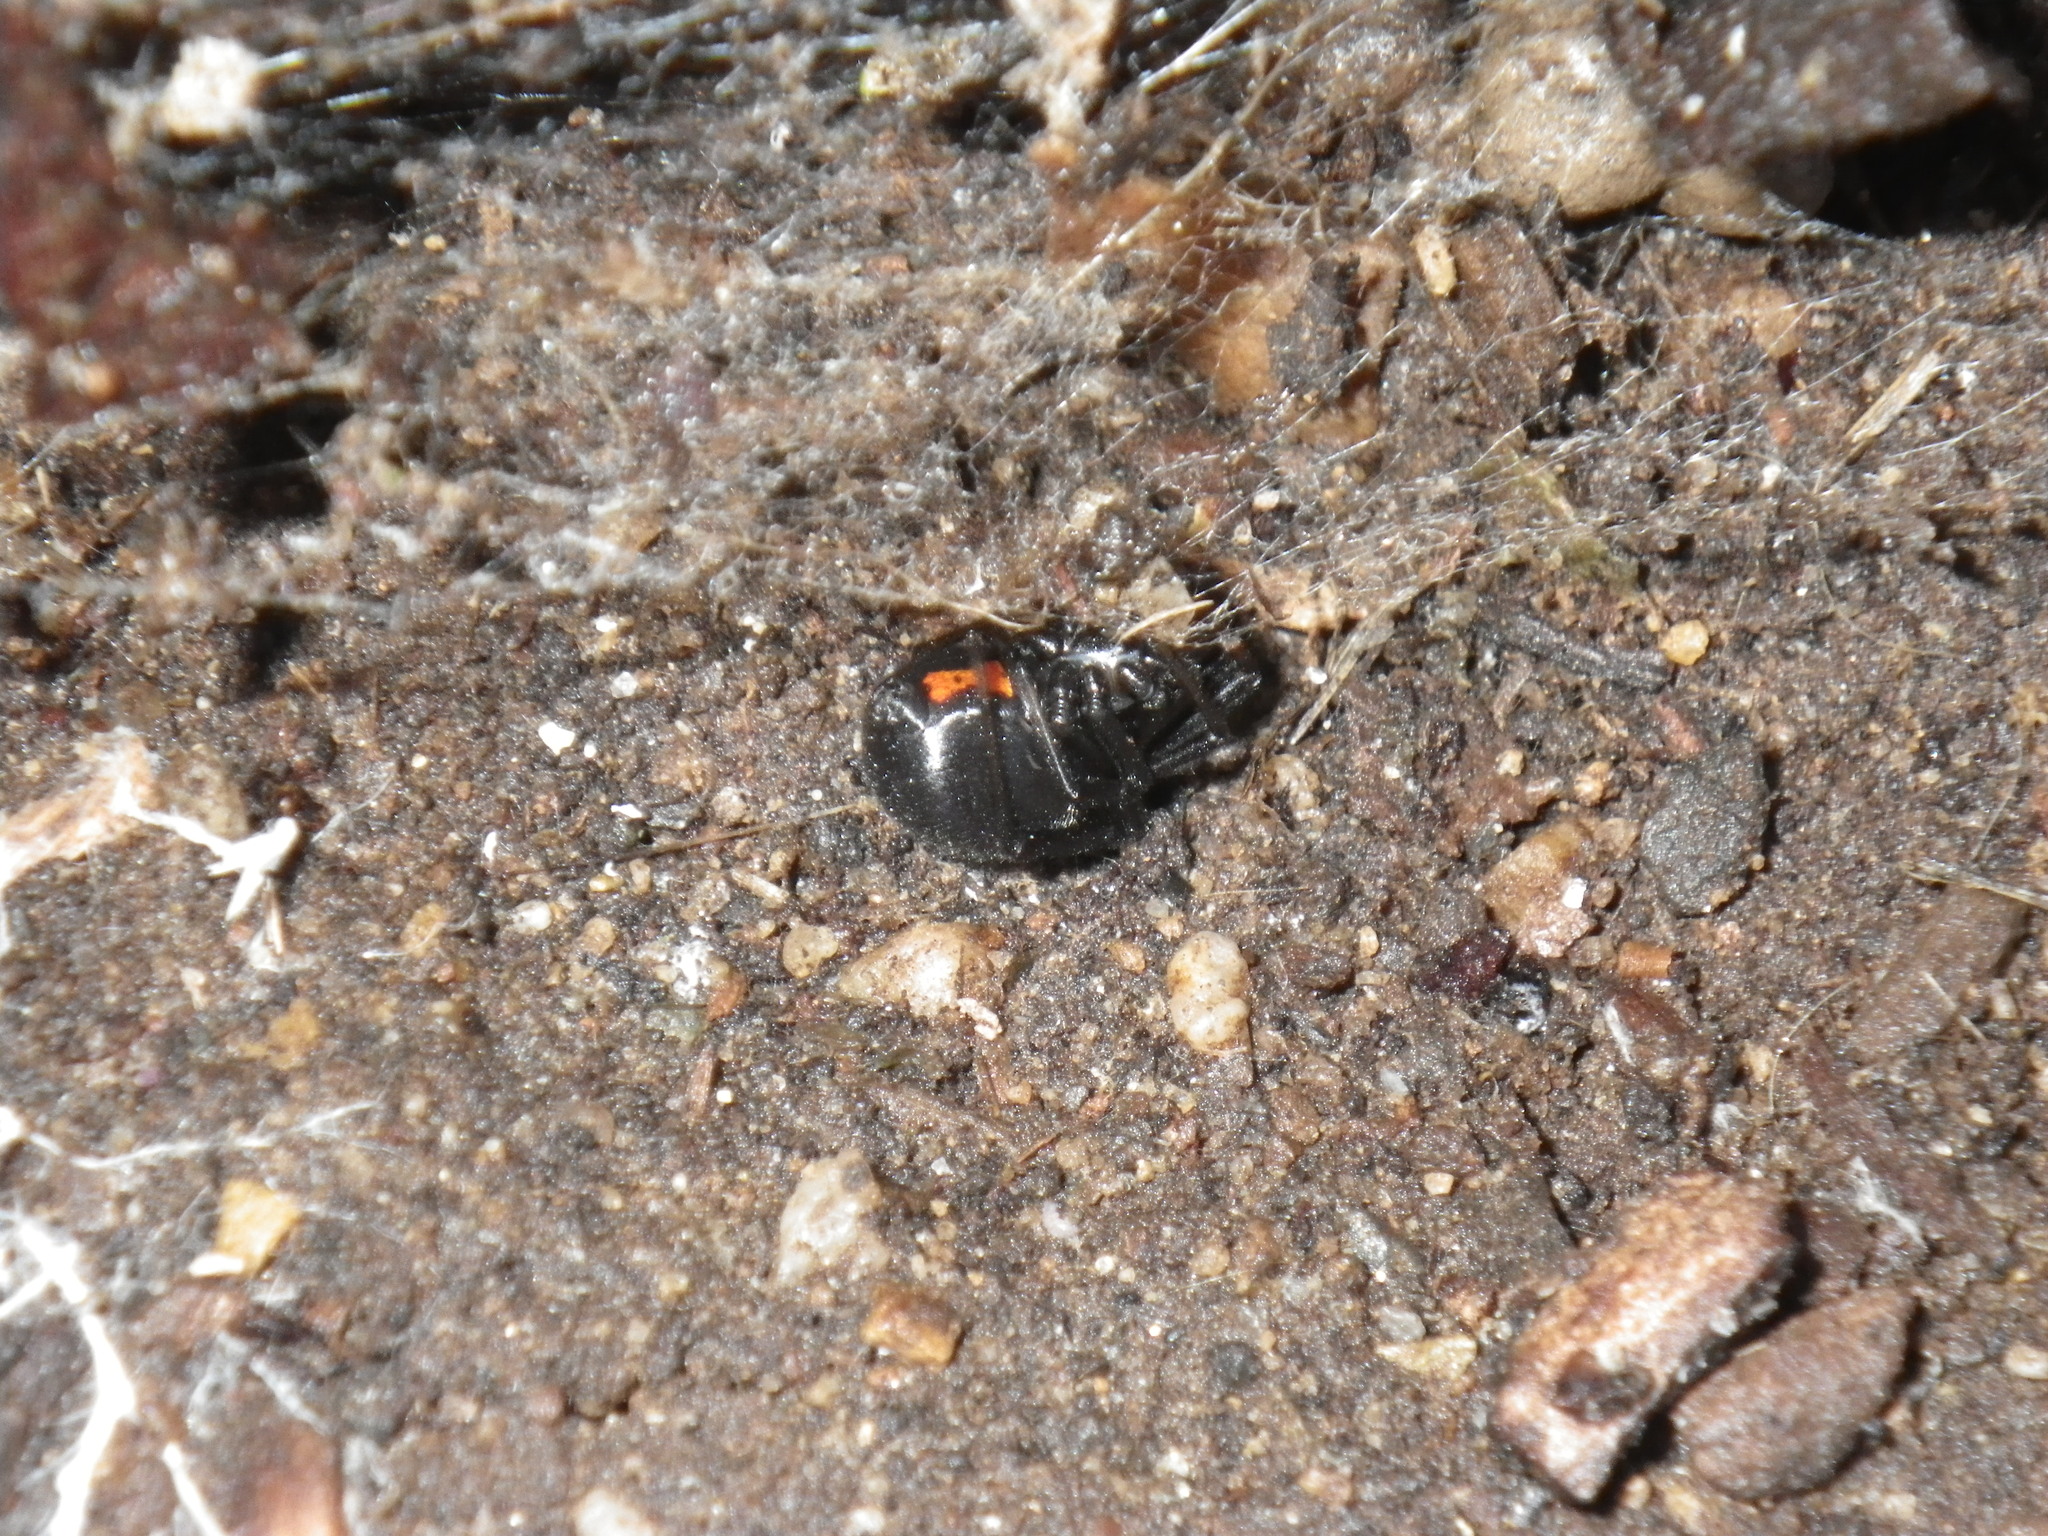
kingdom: Animalia
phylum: Arthropoda
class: Arachnida
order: Araneae
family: Theridiidae
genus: Latrodectus
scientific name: Latrodectus hesperus
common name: Western black widow
